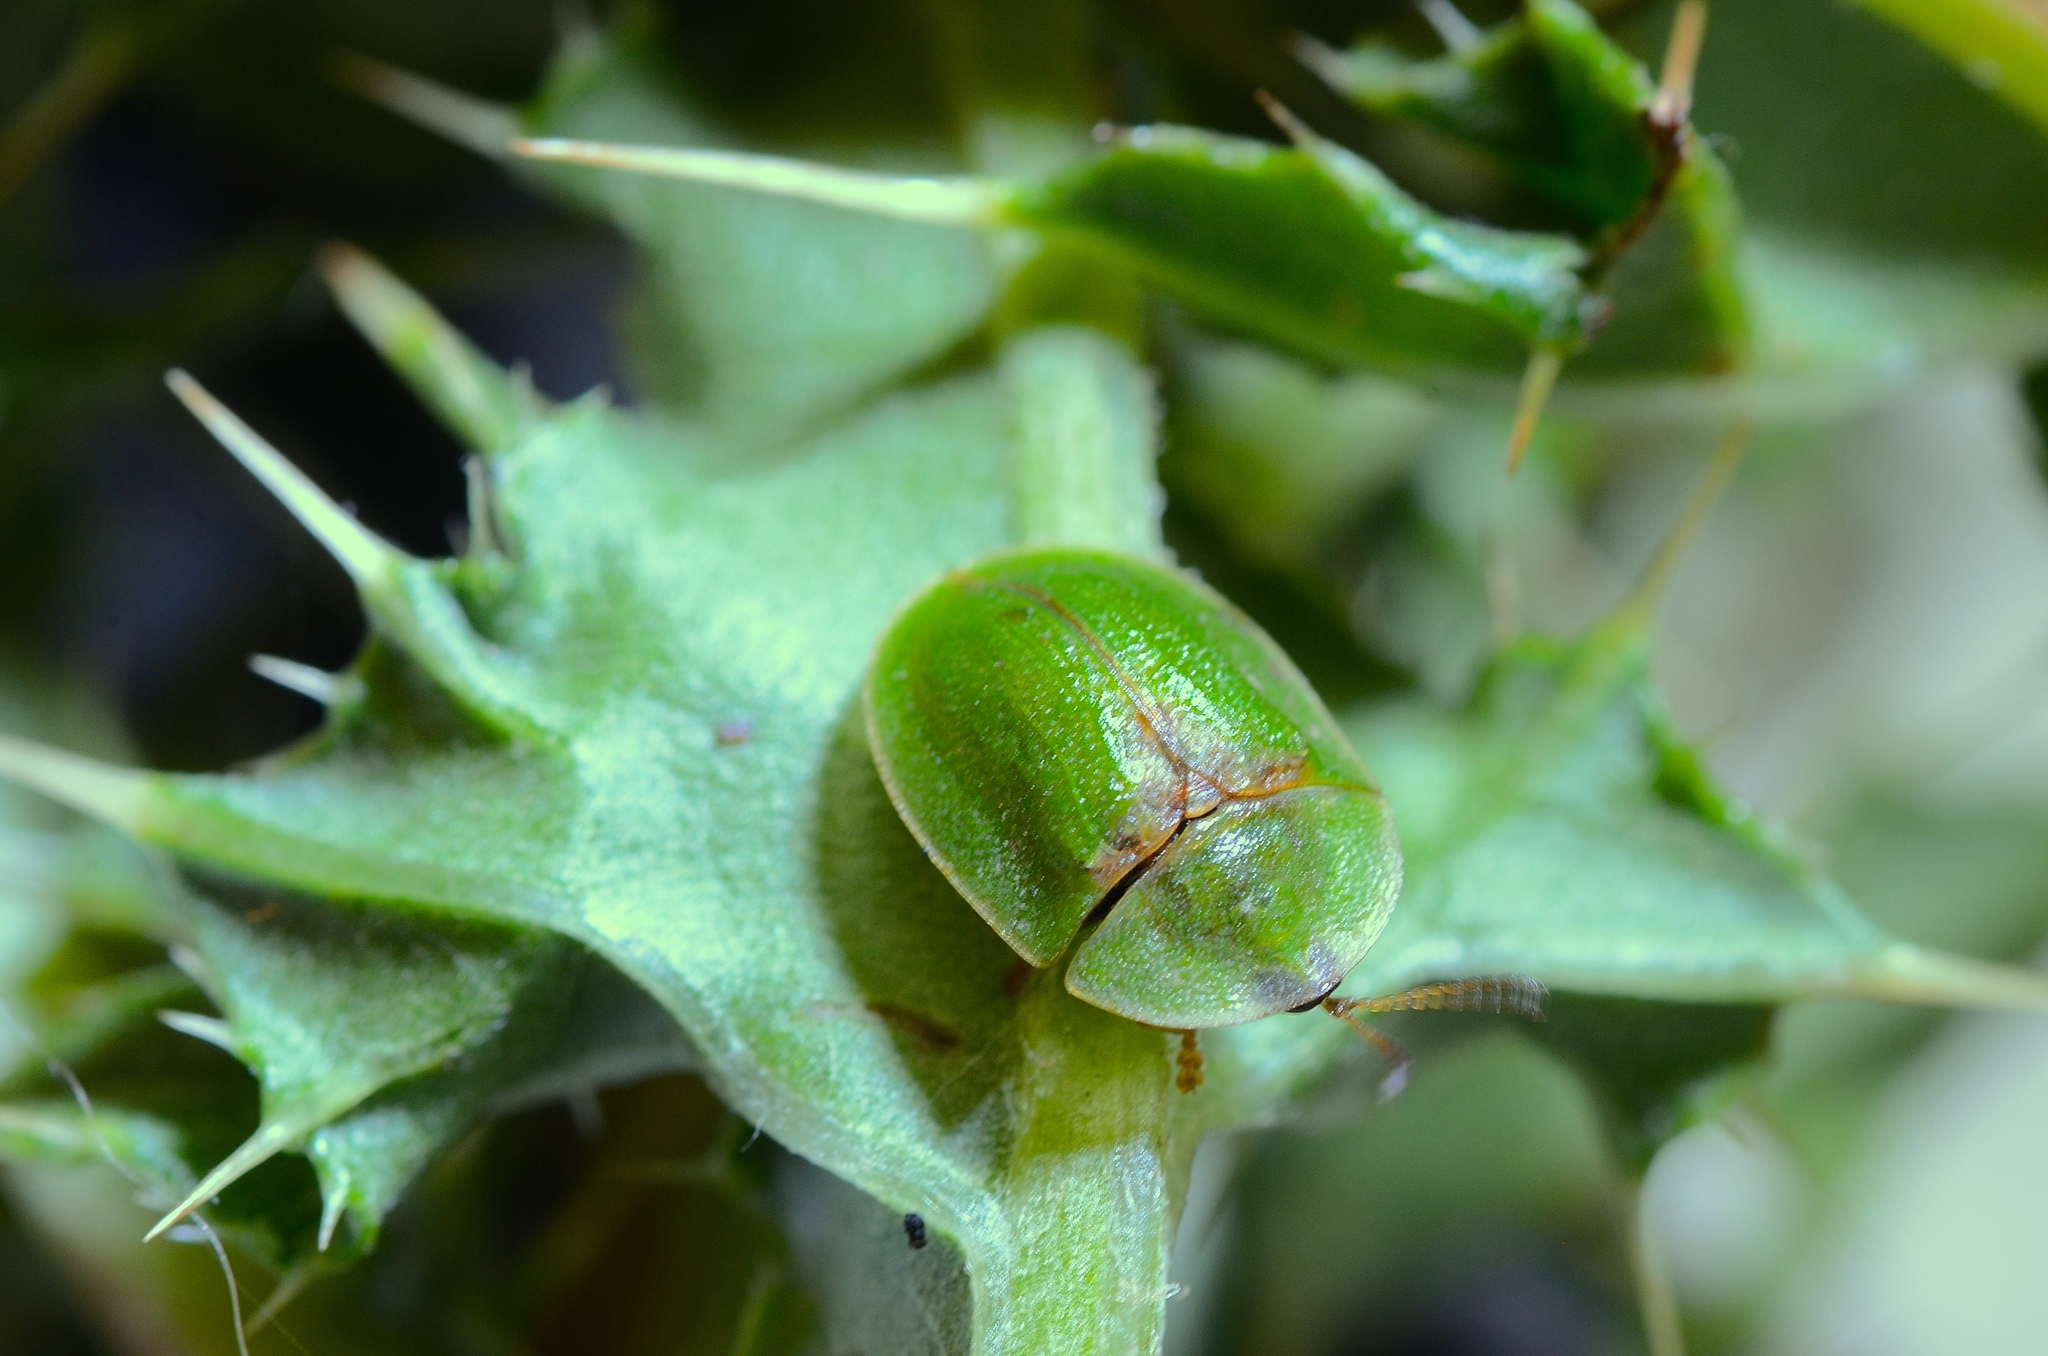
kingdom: Animalia
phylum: Arthropoda
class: Insecta
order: Coleoptera
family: Chrysomelidae
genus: Cassida
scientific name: Cassida rubiginosa
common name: Thistle tortoise beetle
